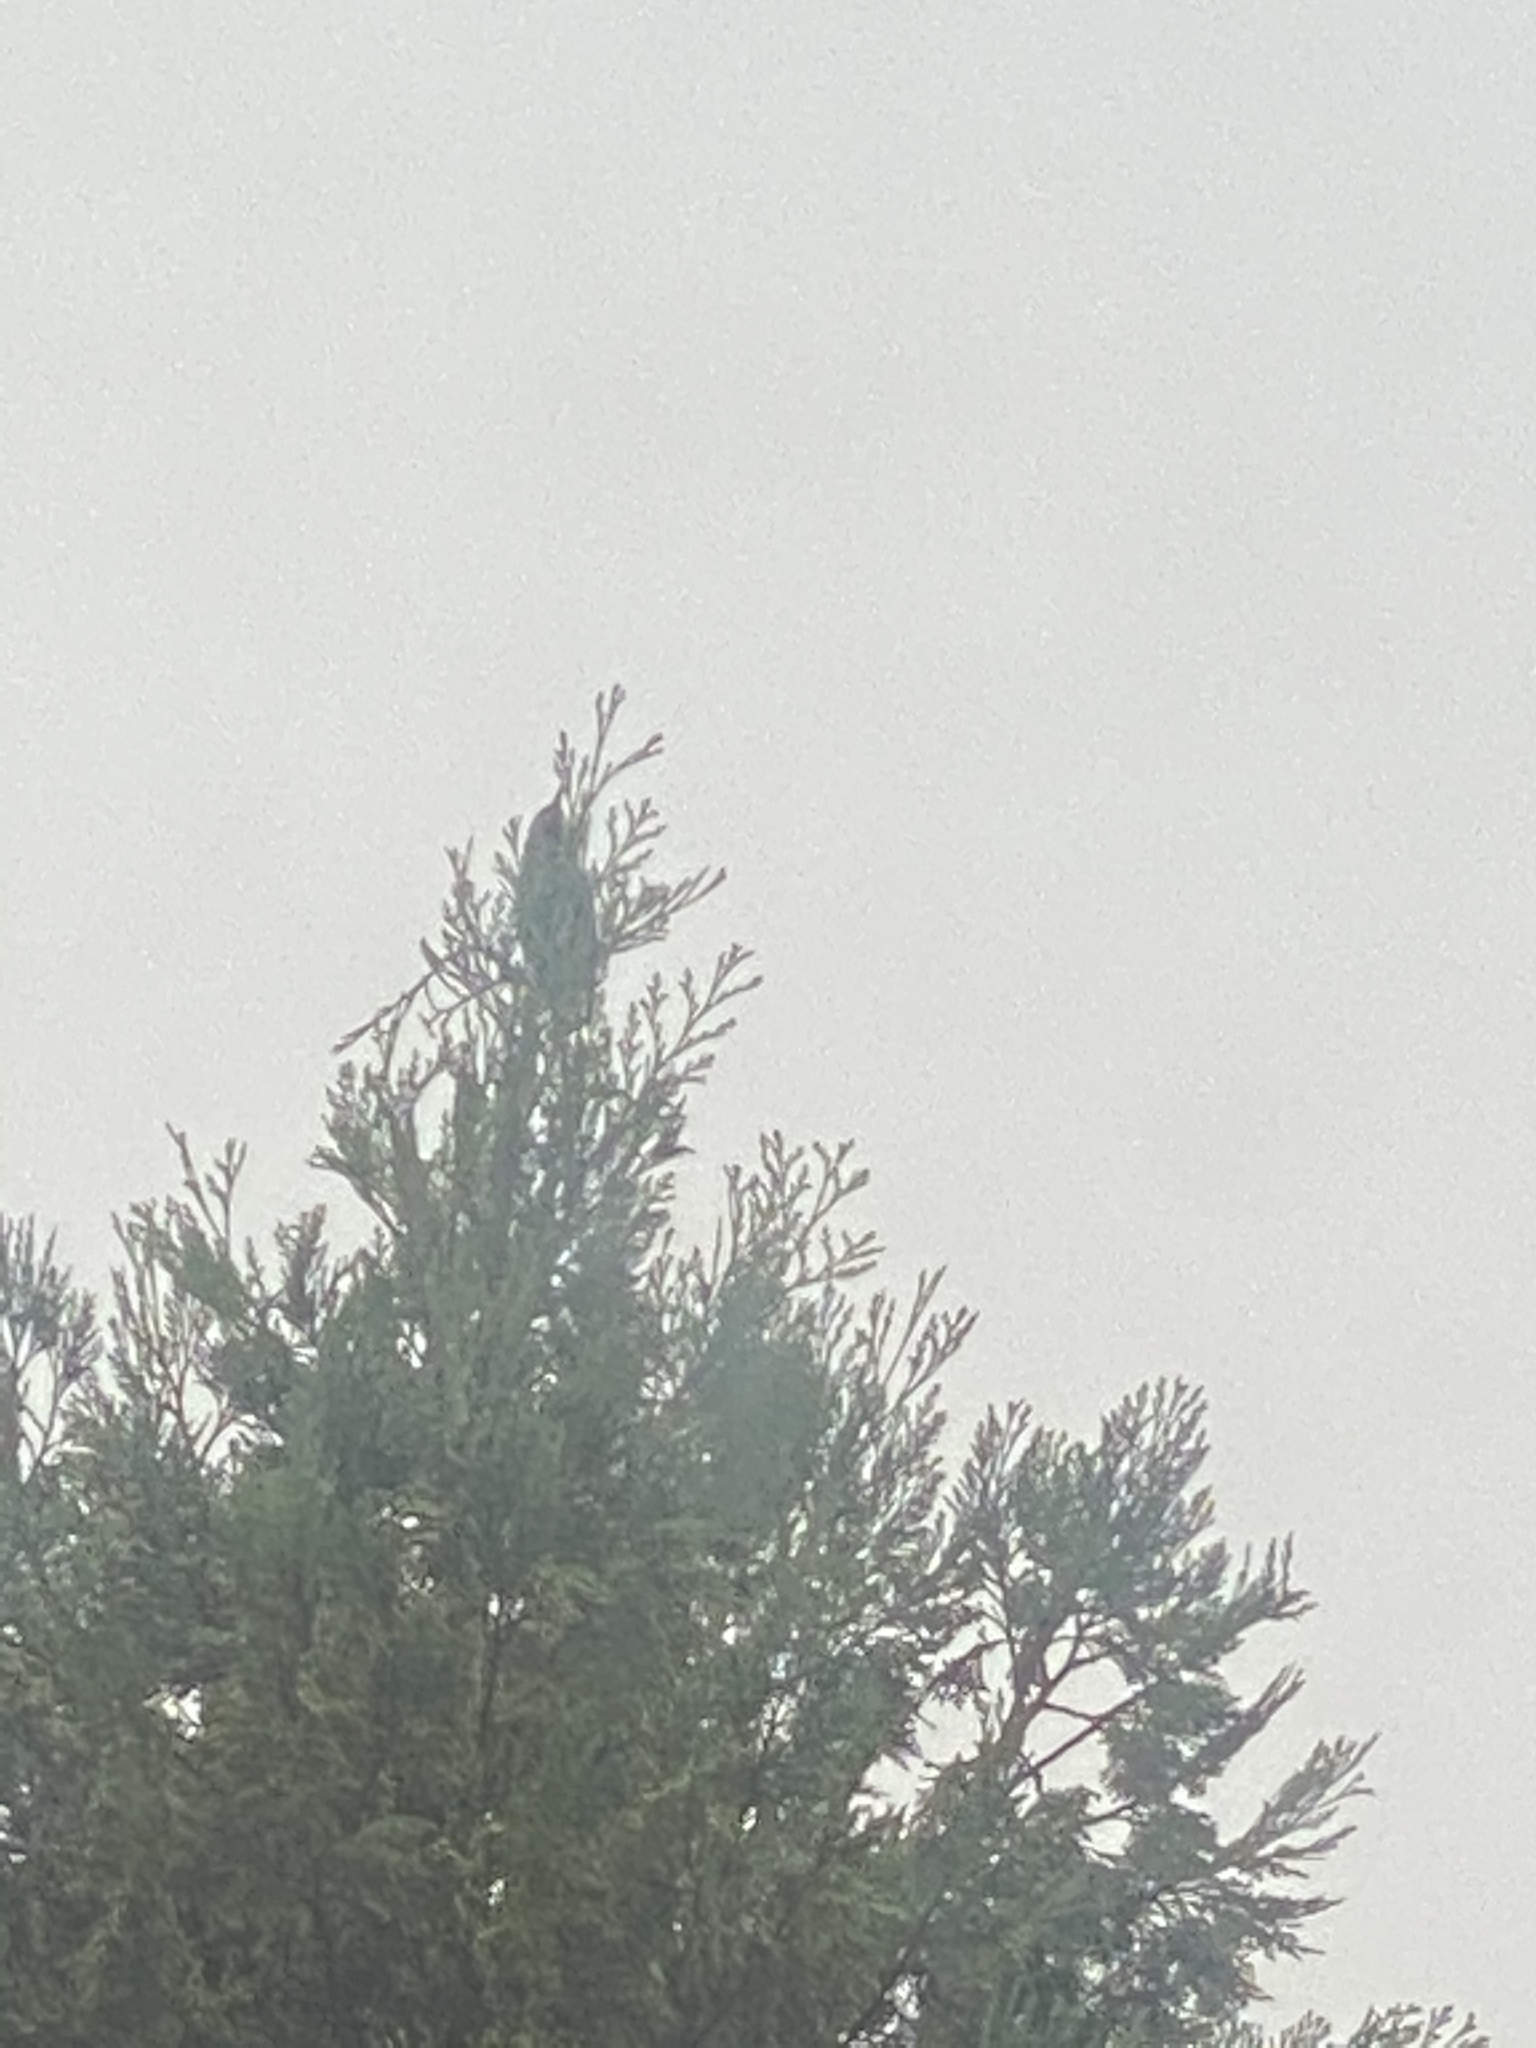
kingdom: Animalia
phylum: Chordata
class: Aves
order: Passeriformes
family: Sturnidae
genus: Sturnus
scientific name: Sturnus vulgaris
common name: Common starling
